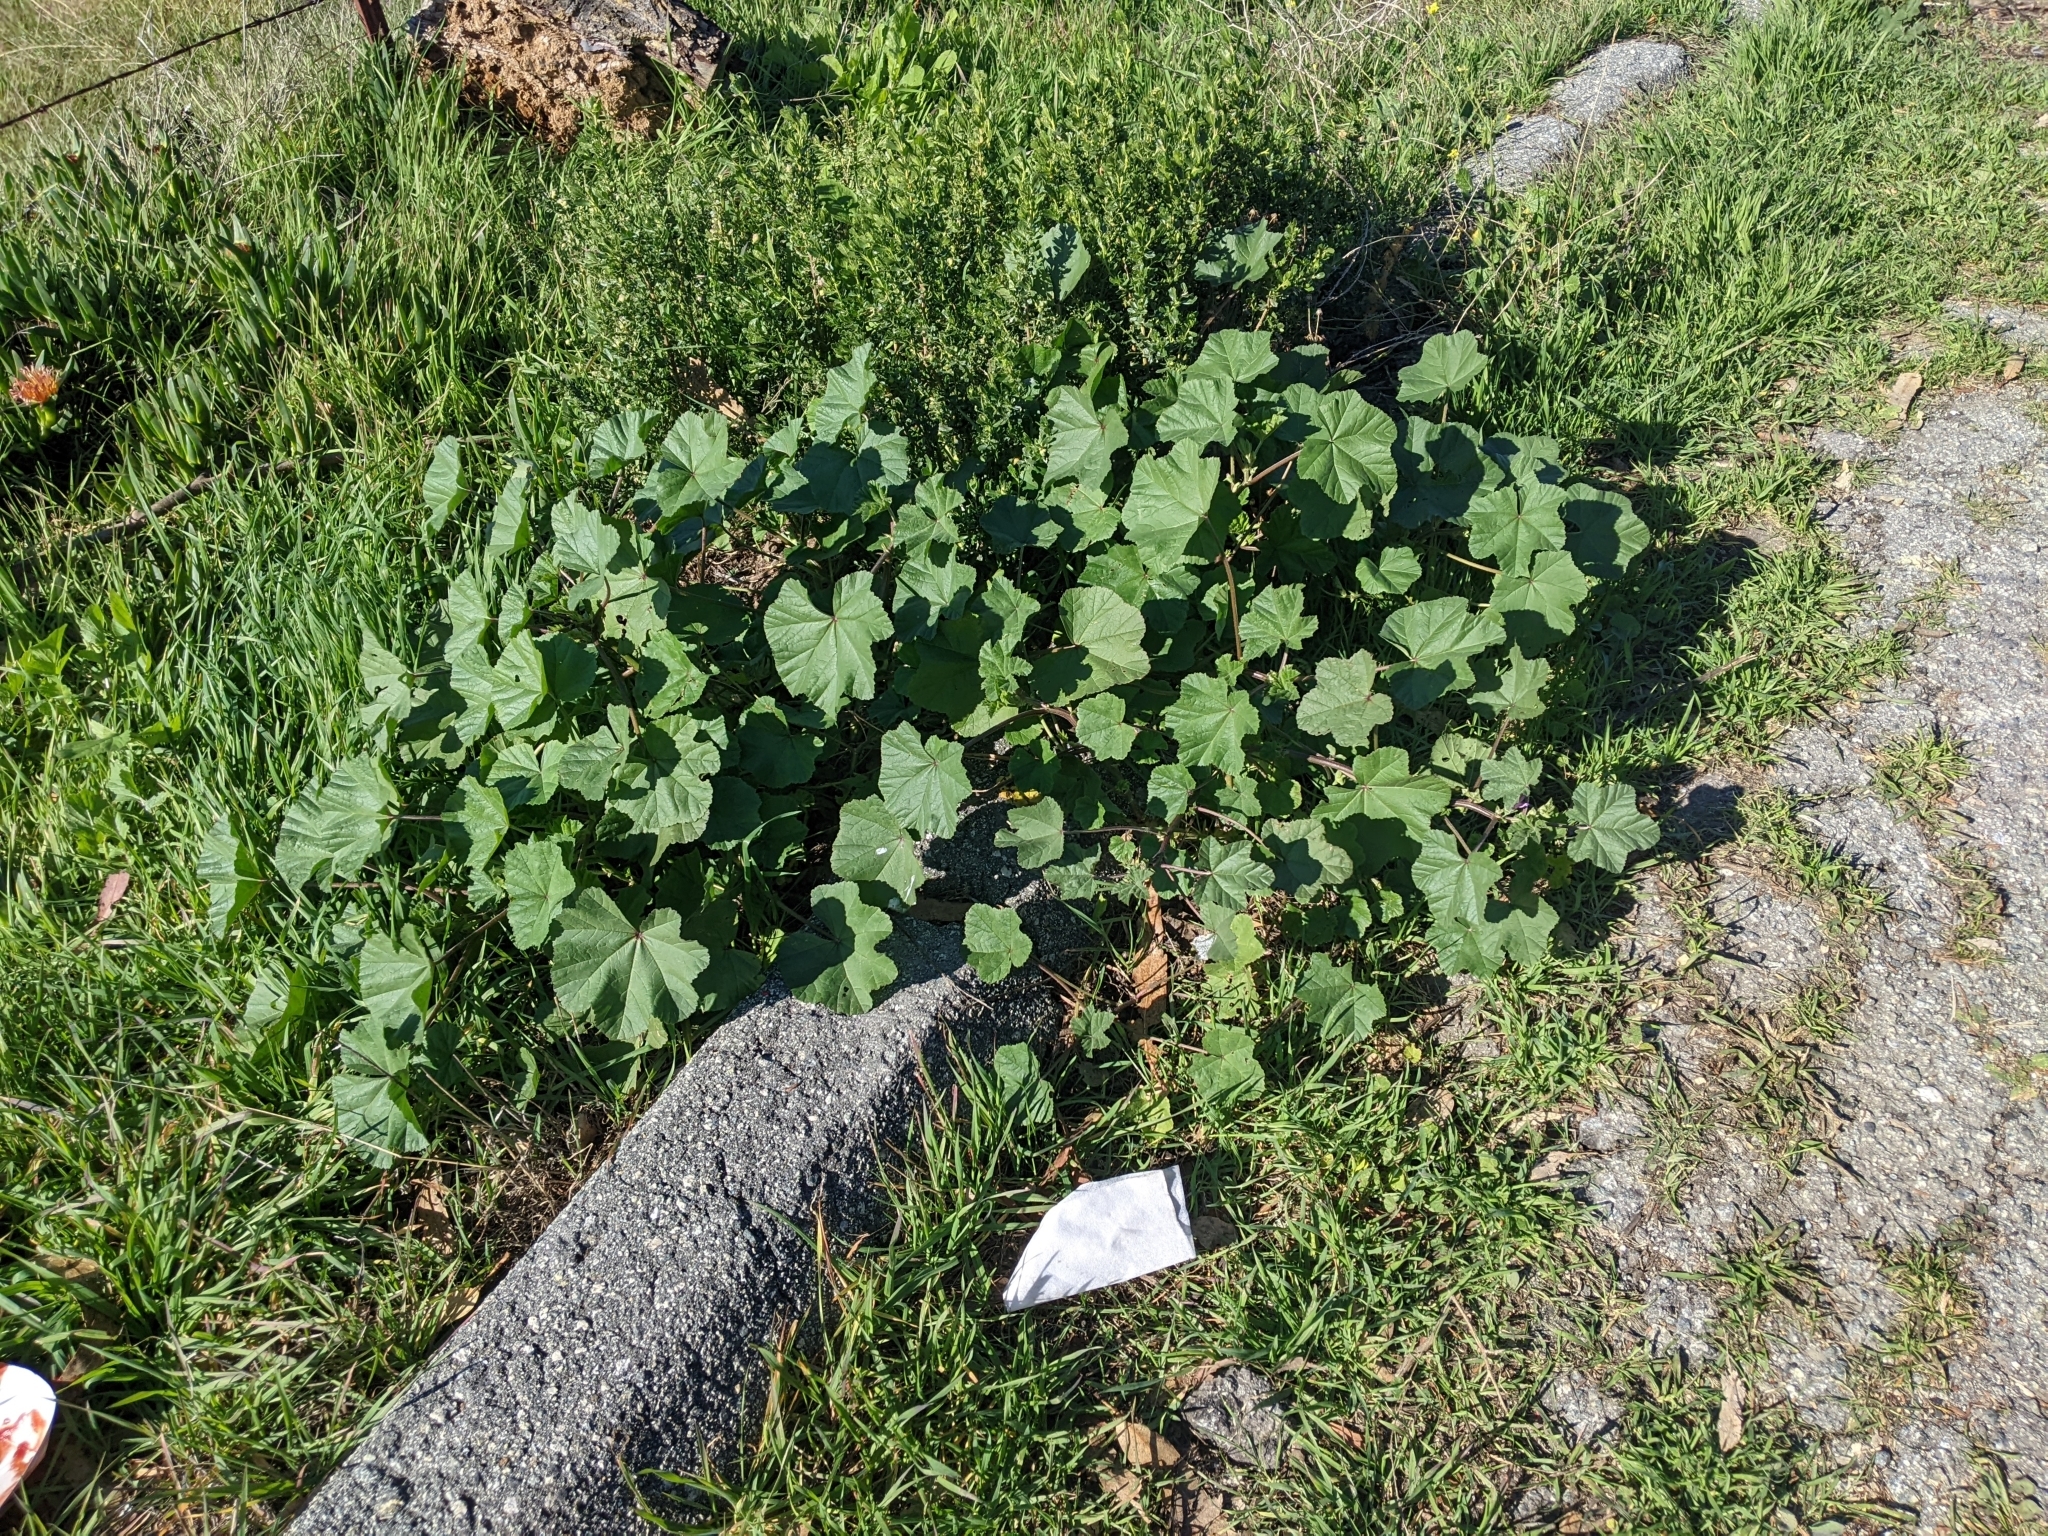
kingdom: Plantae
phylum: Tracheophyta
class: Magnoliopsida
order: Malvales
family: Malvaceae
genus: Malva
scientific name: Malva
